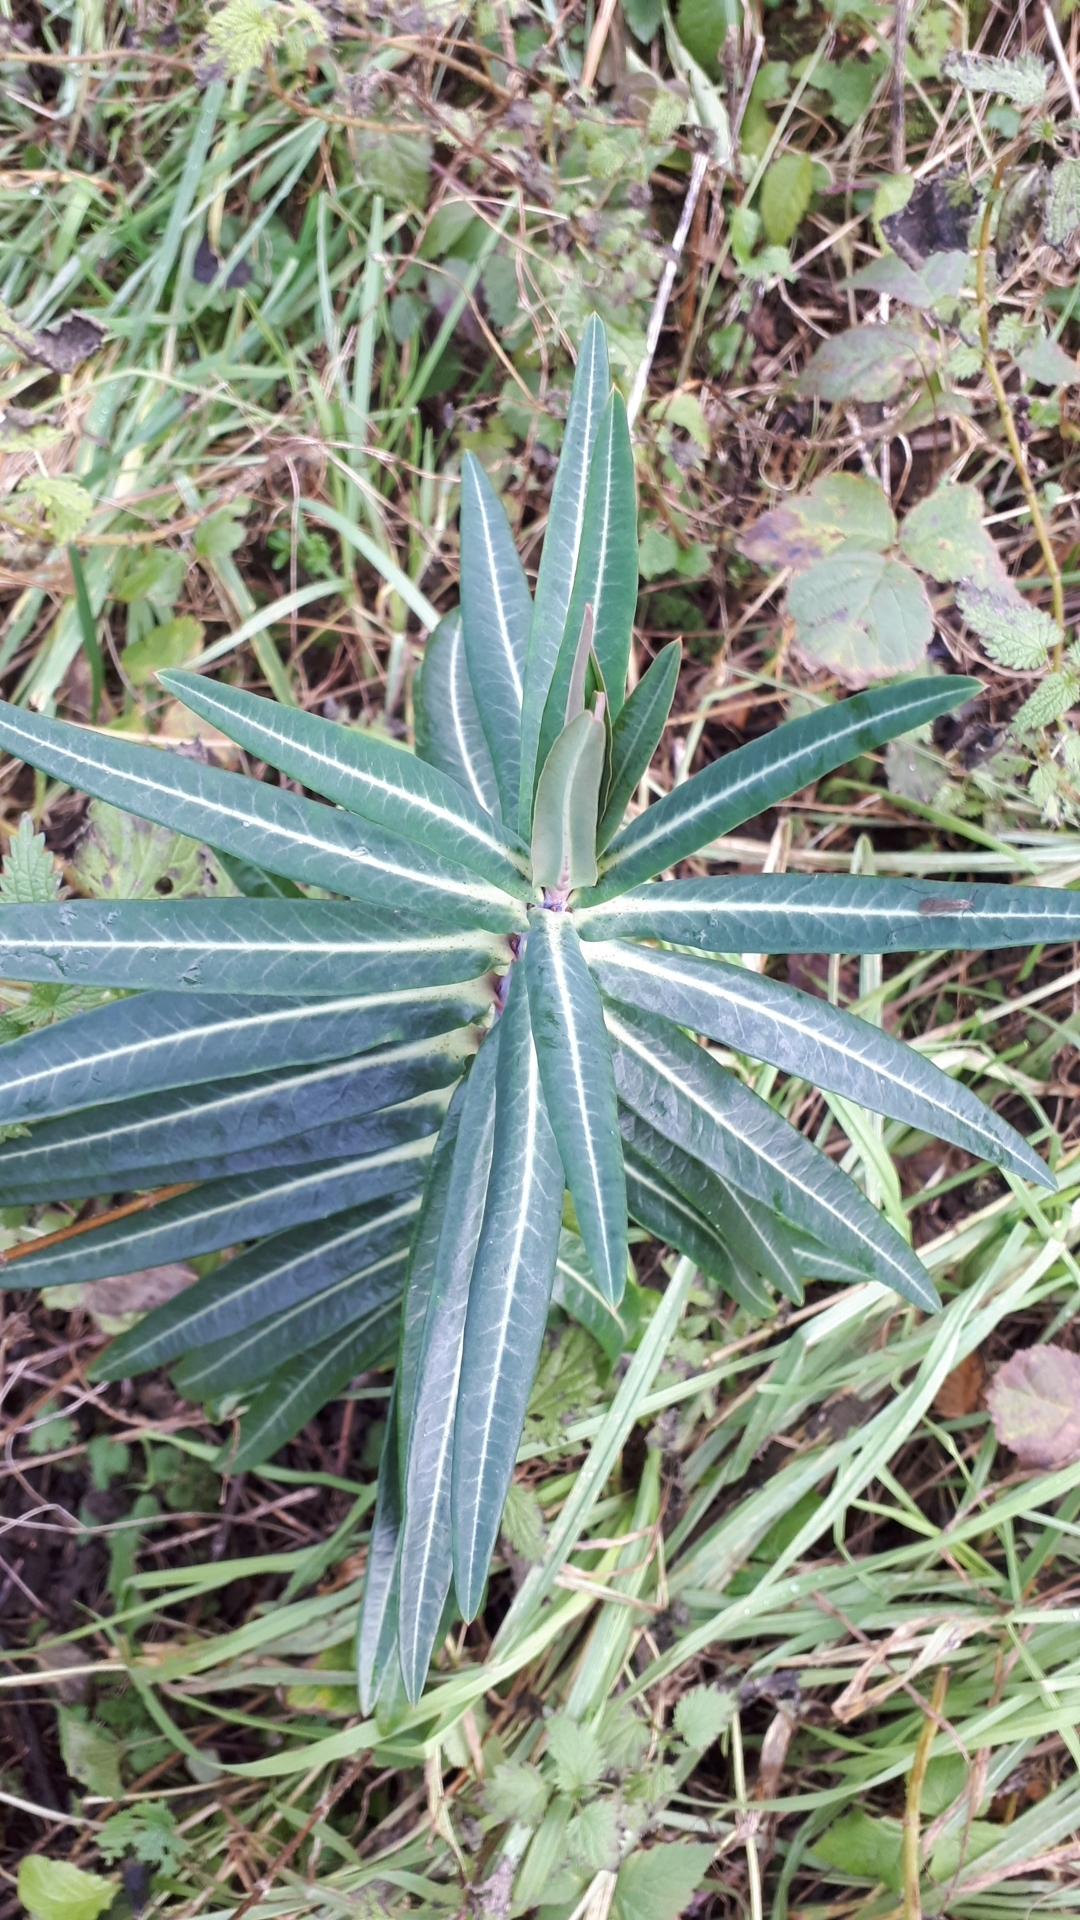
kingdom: Plantae
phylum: Tracheophyta
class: Magnoliopsida
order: Malpighiales
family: Euphorbiaceae
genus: Euphorbia
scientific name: Euphorbia lathyris
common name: Caper spurge
